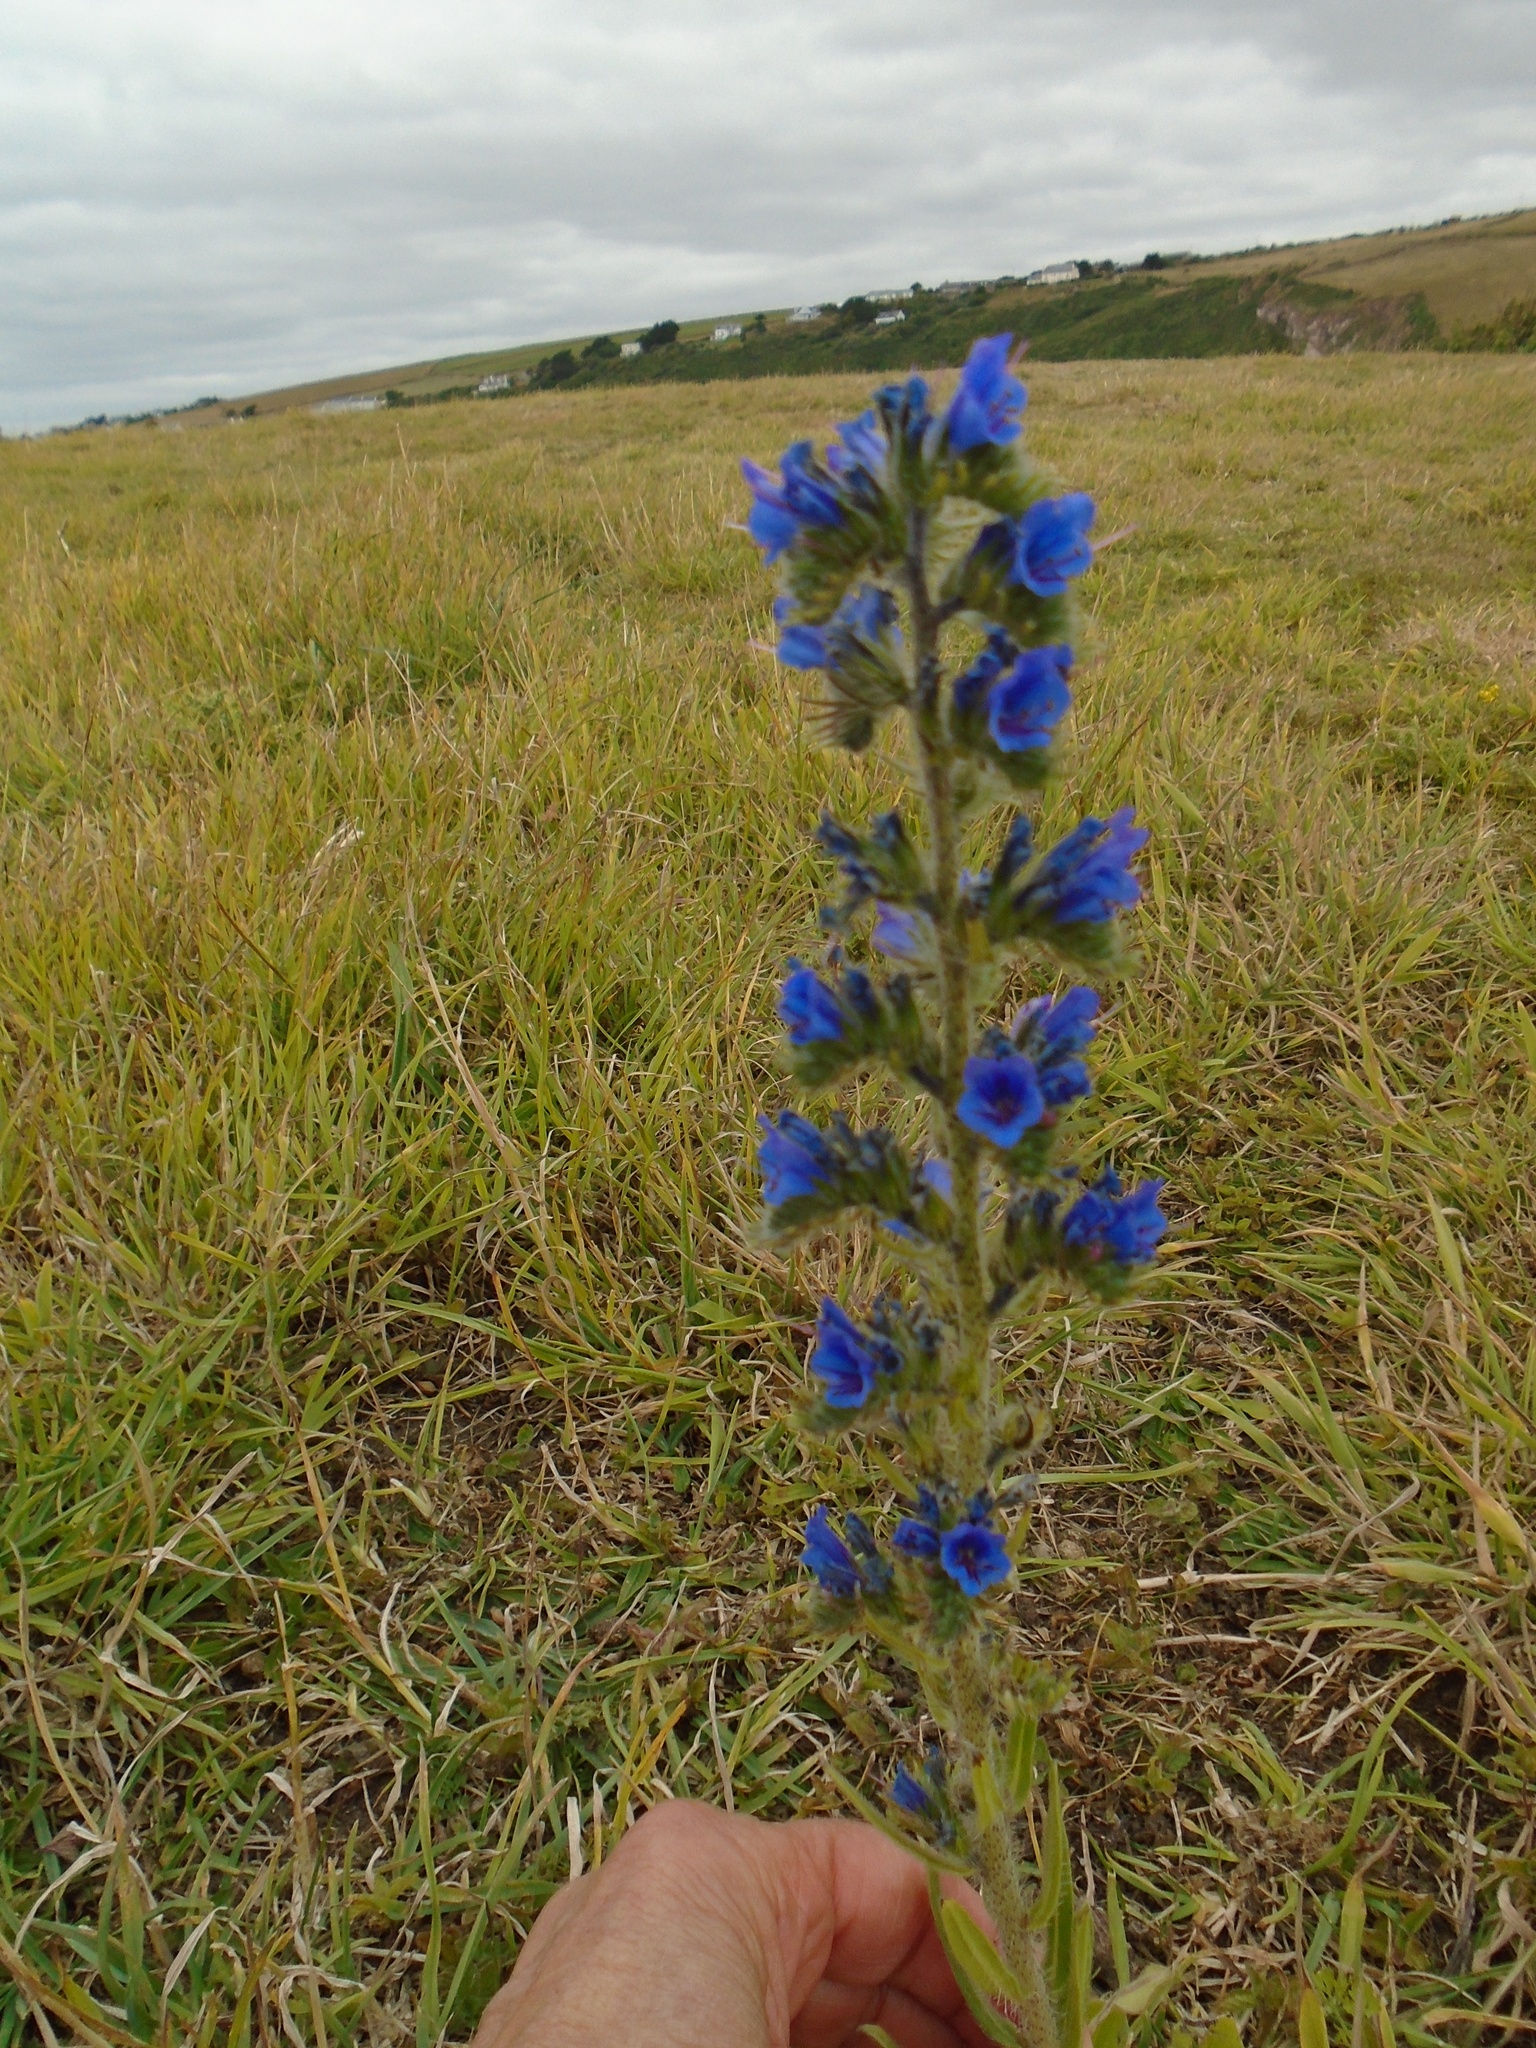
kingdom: Plantae
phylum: Tracheophyta
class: Magnoliopsida
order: Boraginales
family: Boraginaceae
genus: Echium
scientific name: Echium vulgare
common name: Common viper's bugloss
